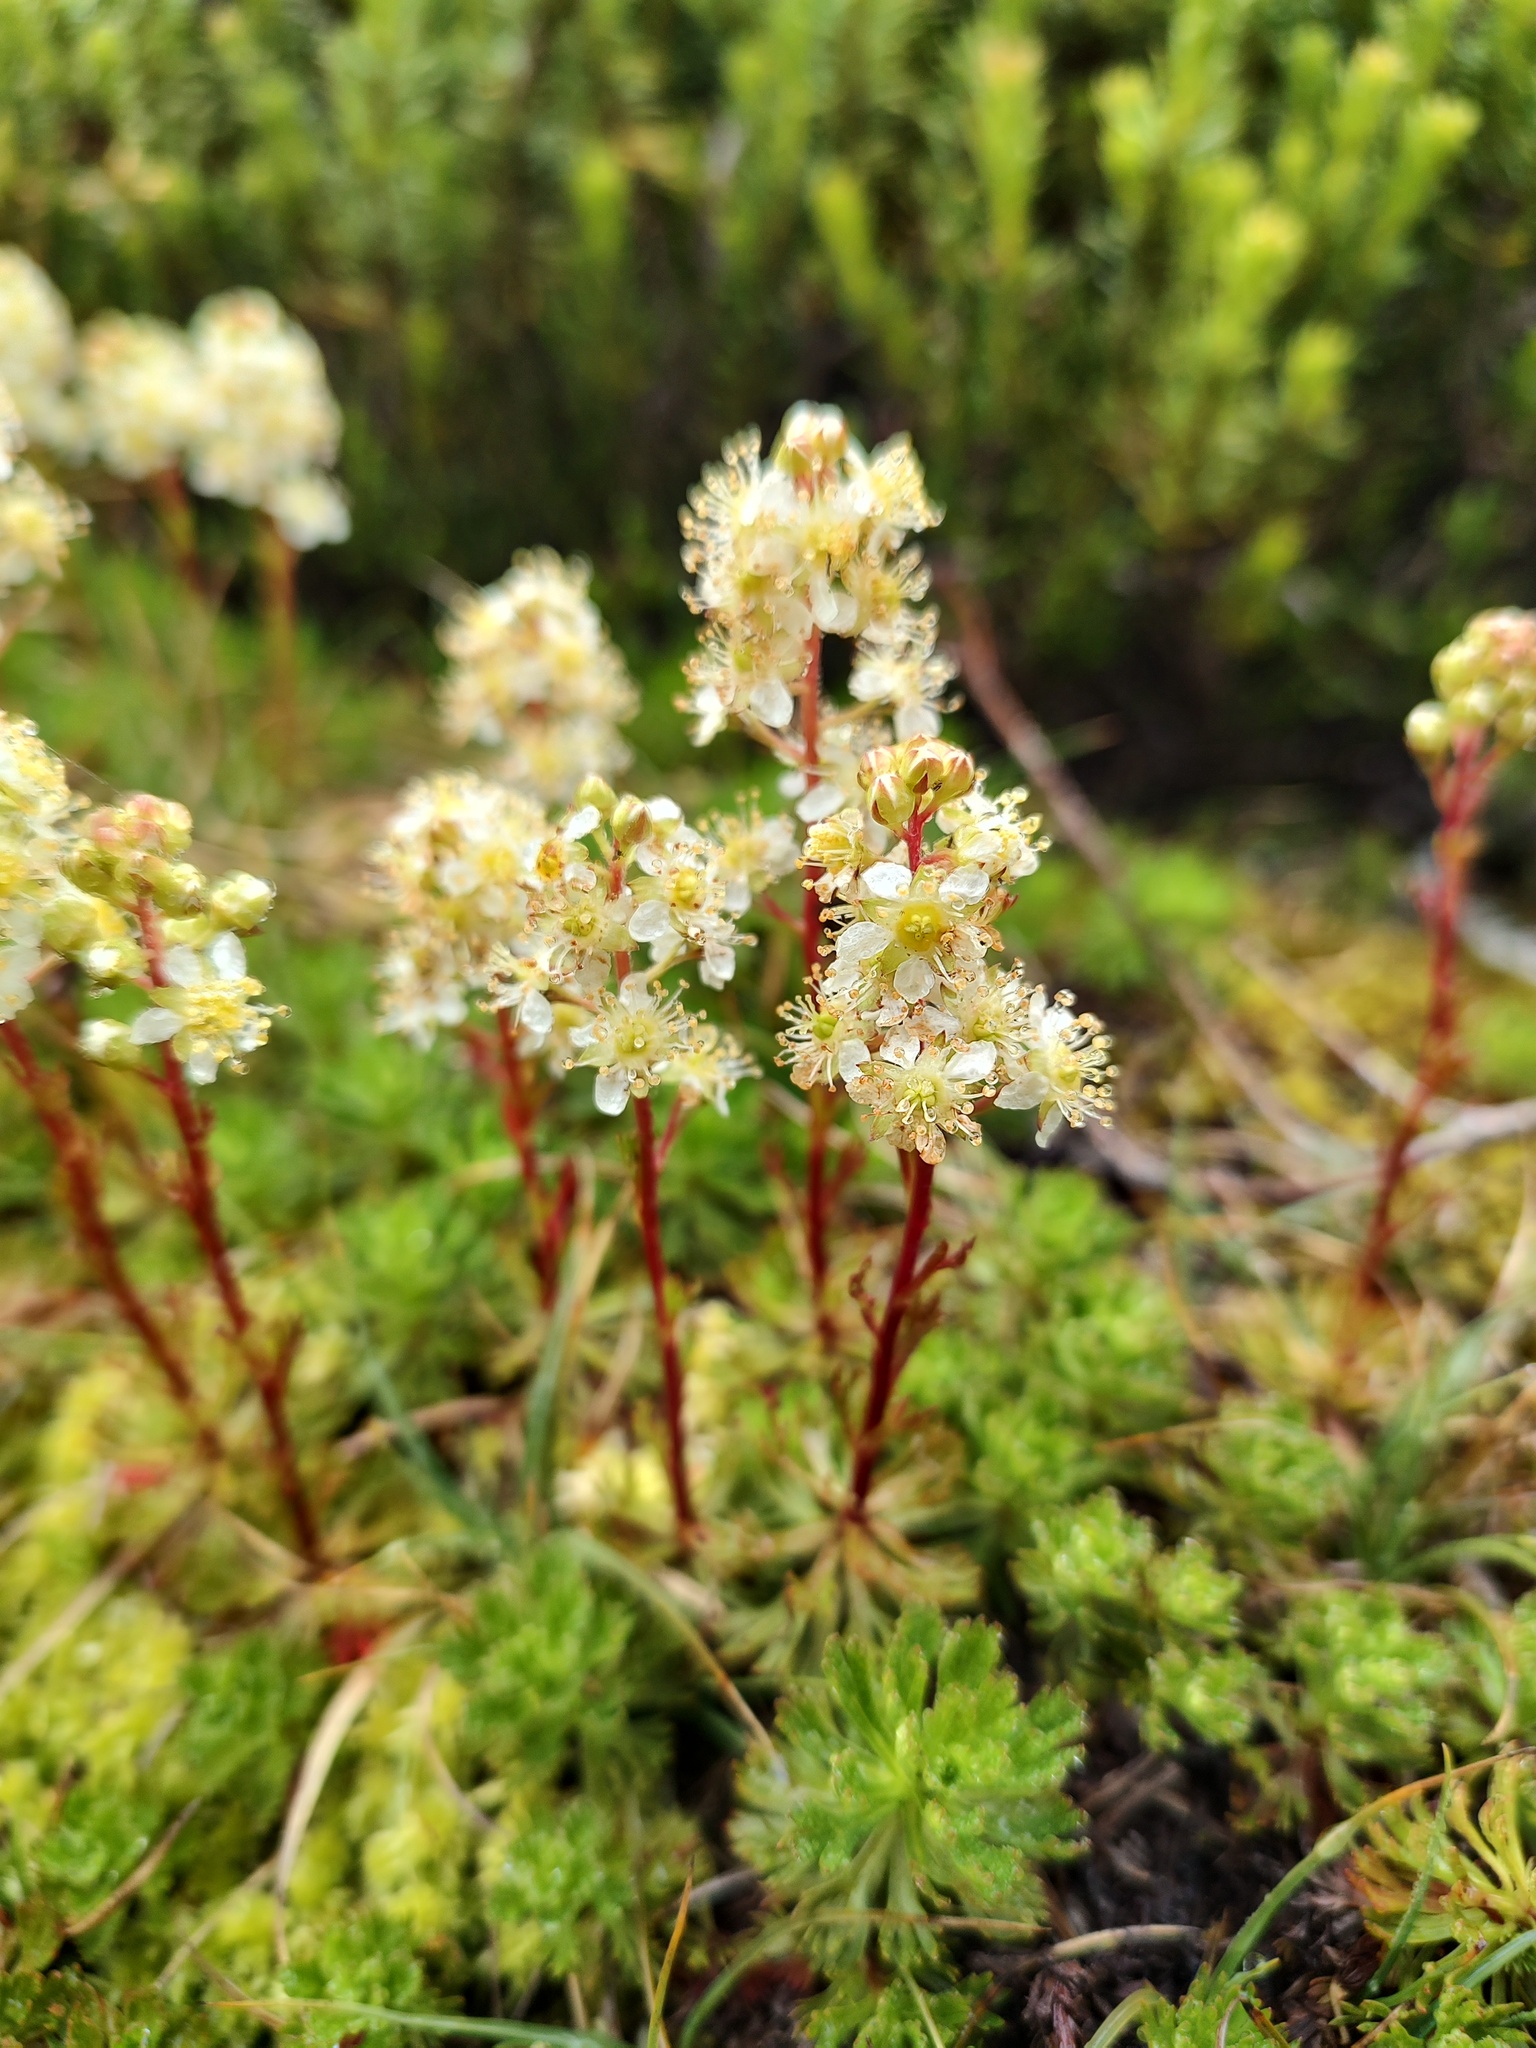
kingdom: Plantae
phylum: Tracheophyta
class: Magnoliopsida
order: Rosales
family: Rosaceae
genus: Luetkea
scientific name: Luetkea pectinata
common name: Partridgefoot
